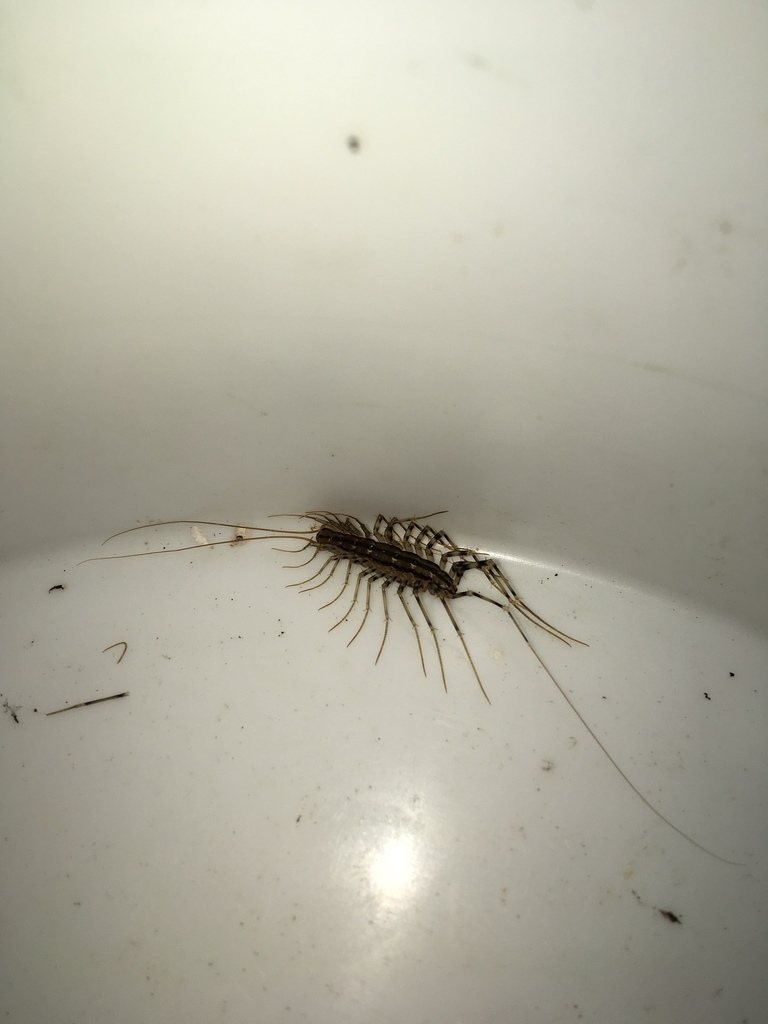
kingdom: Animalia
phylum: Arthropoda
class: Chilopoda
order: Scutigeromorpha
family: Scutigeridae
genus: Scutigera
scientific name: Scutigera coleoptrata
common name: House centipede
